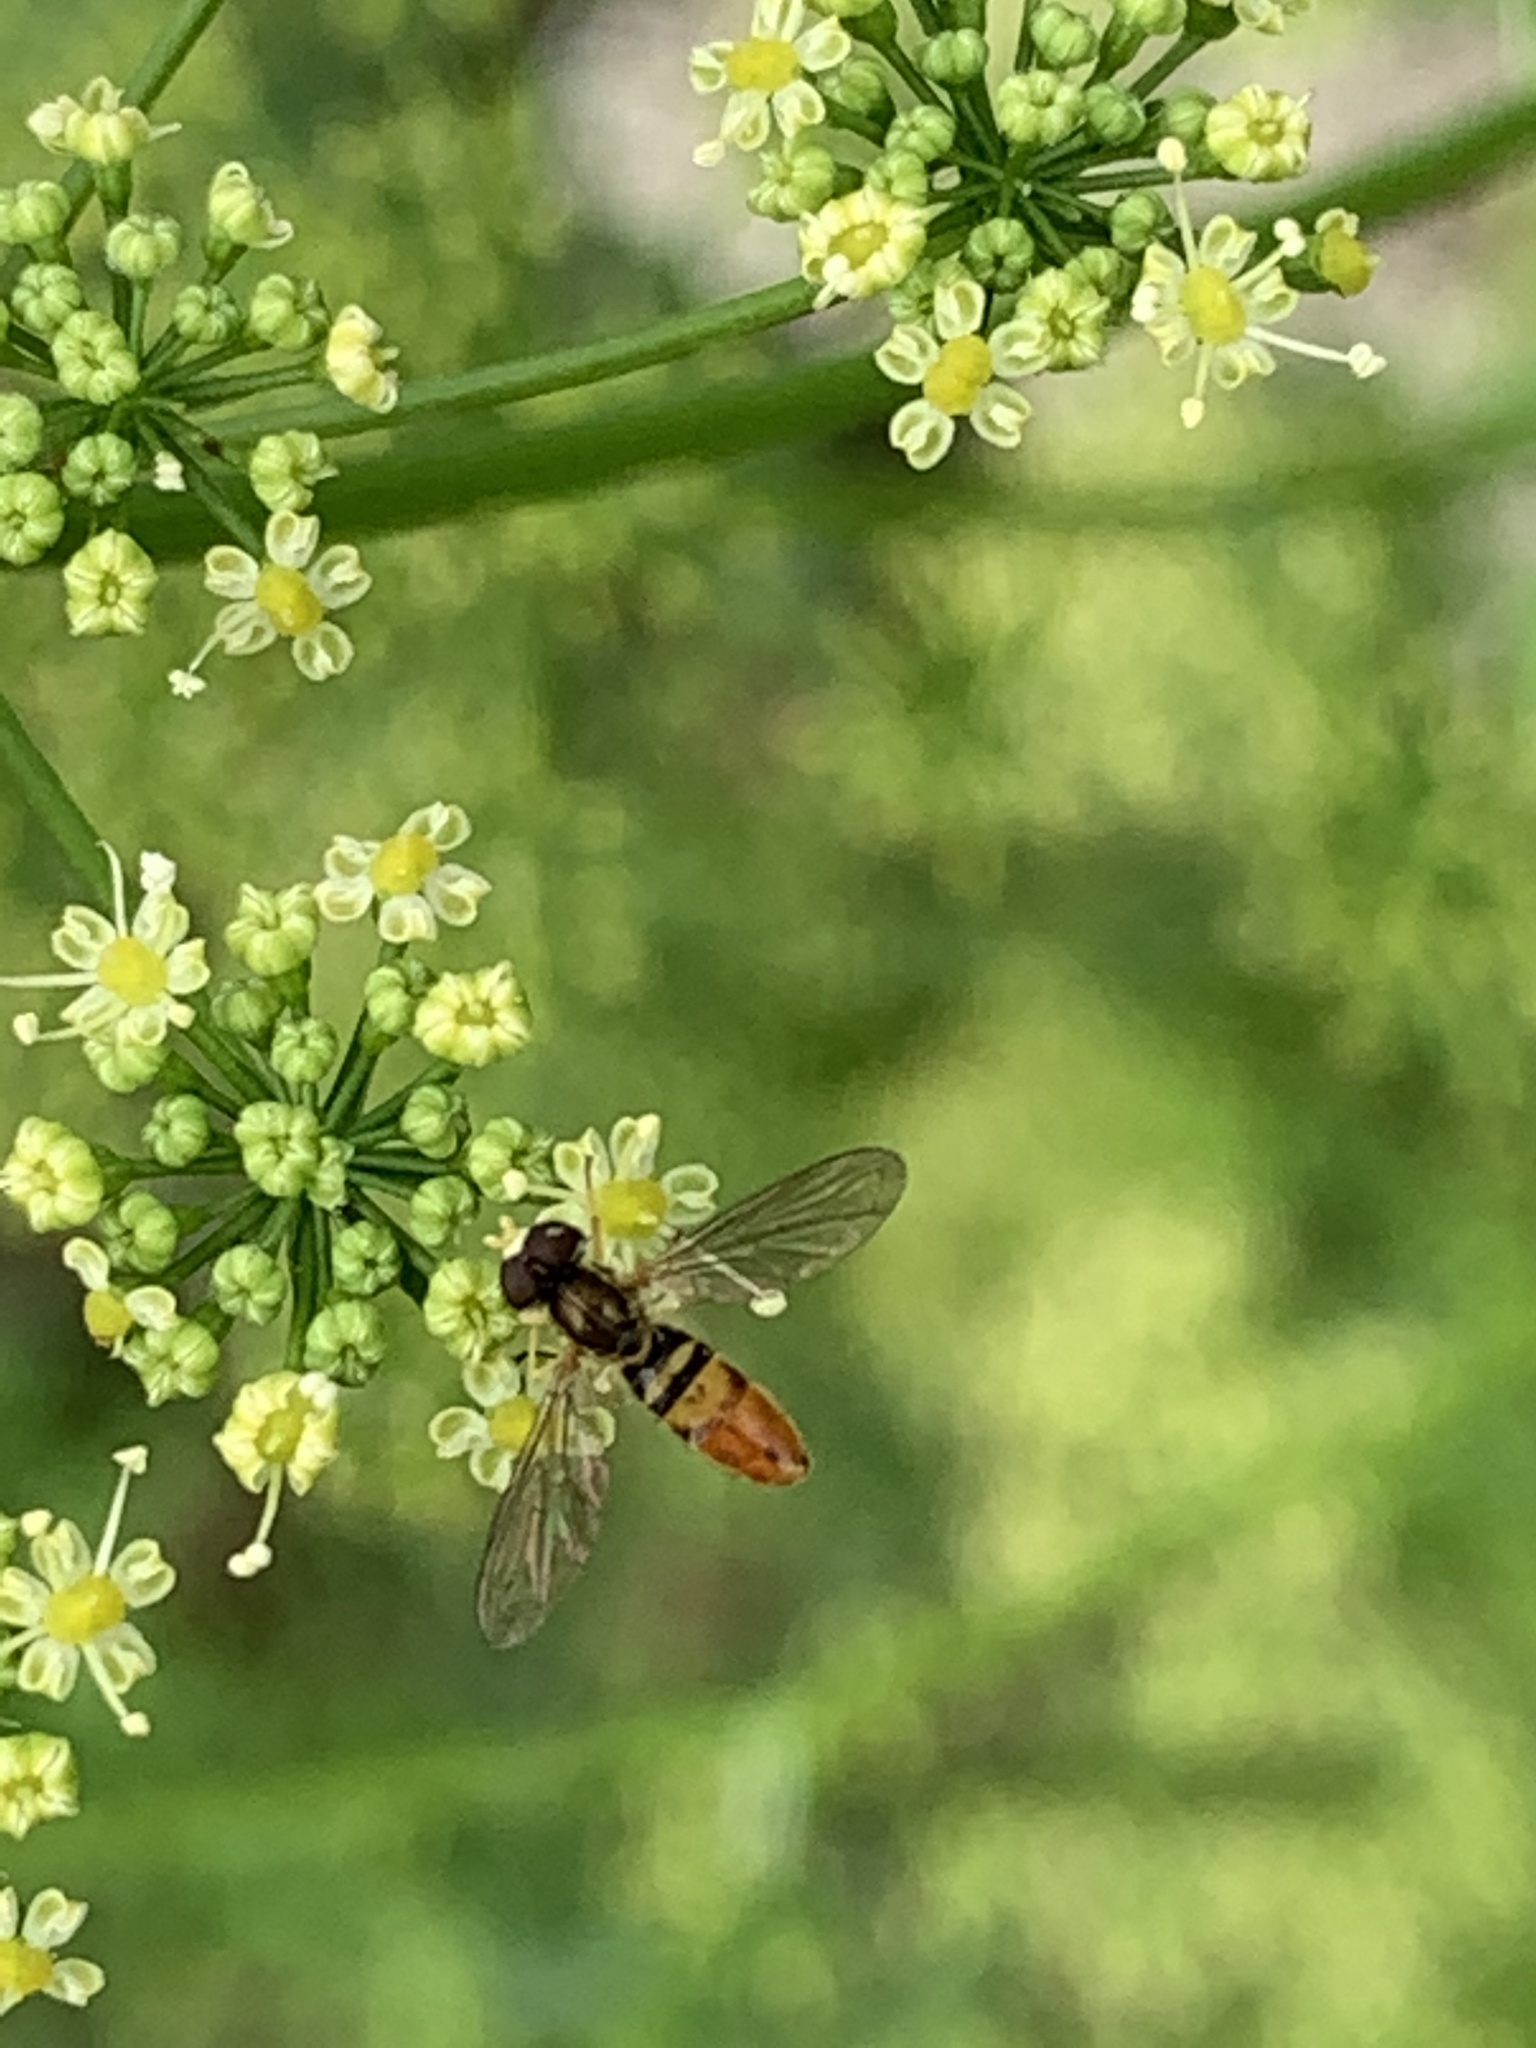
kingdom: Animalia
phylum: Arthropoda
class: Insecta
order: Diptera
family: Syrphidae
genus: Toxomerus
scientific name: Toxomerus marginatus
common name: Syrphid fly
